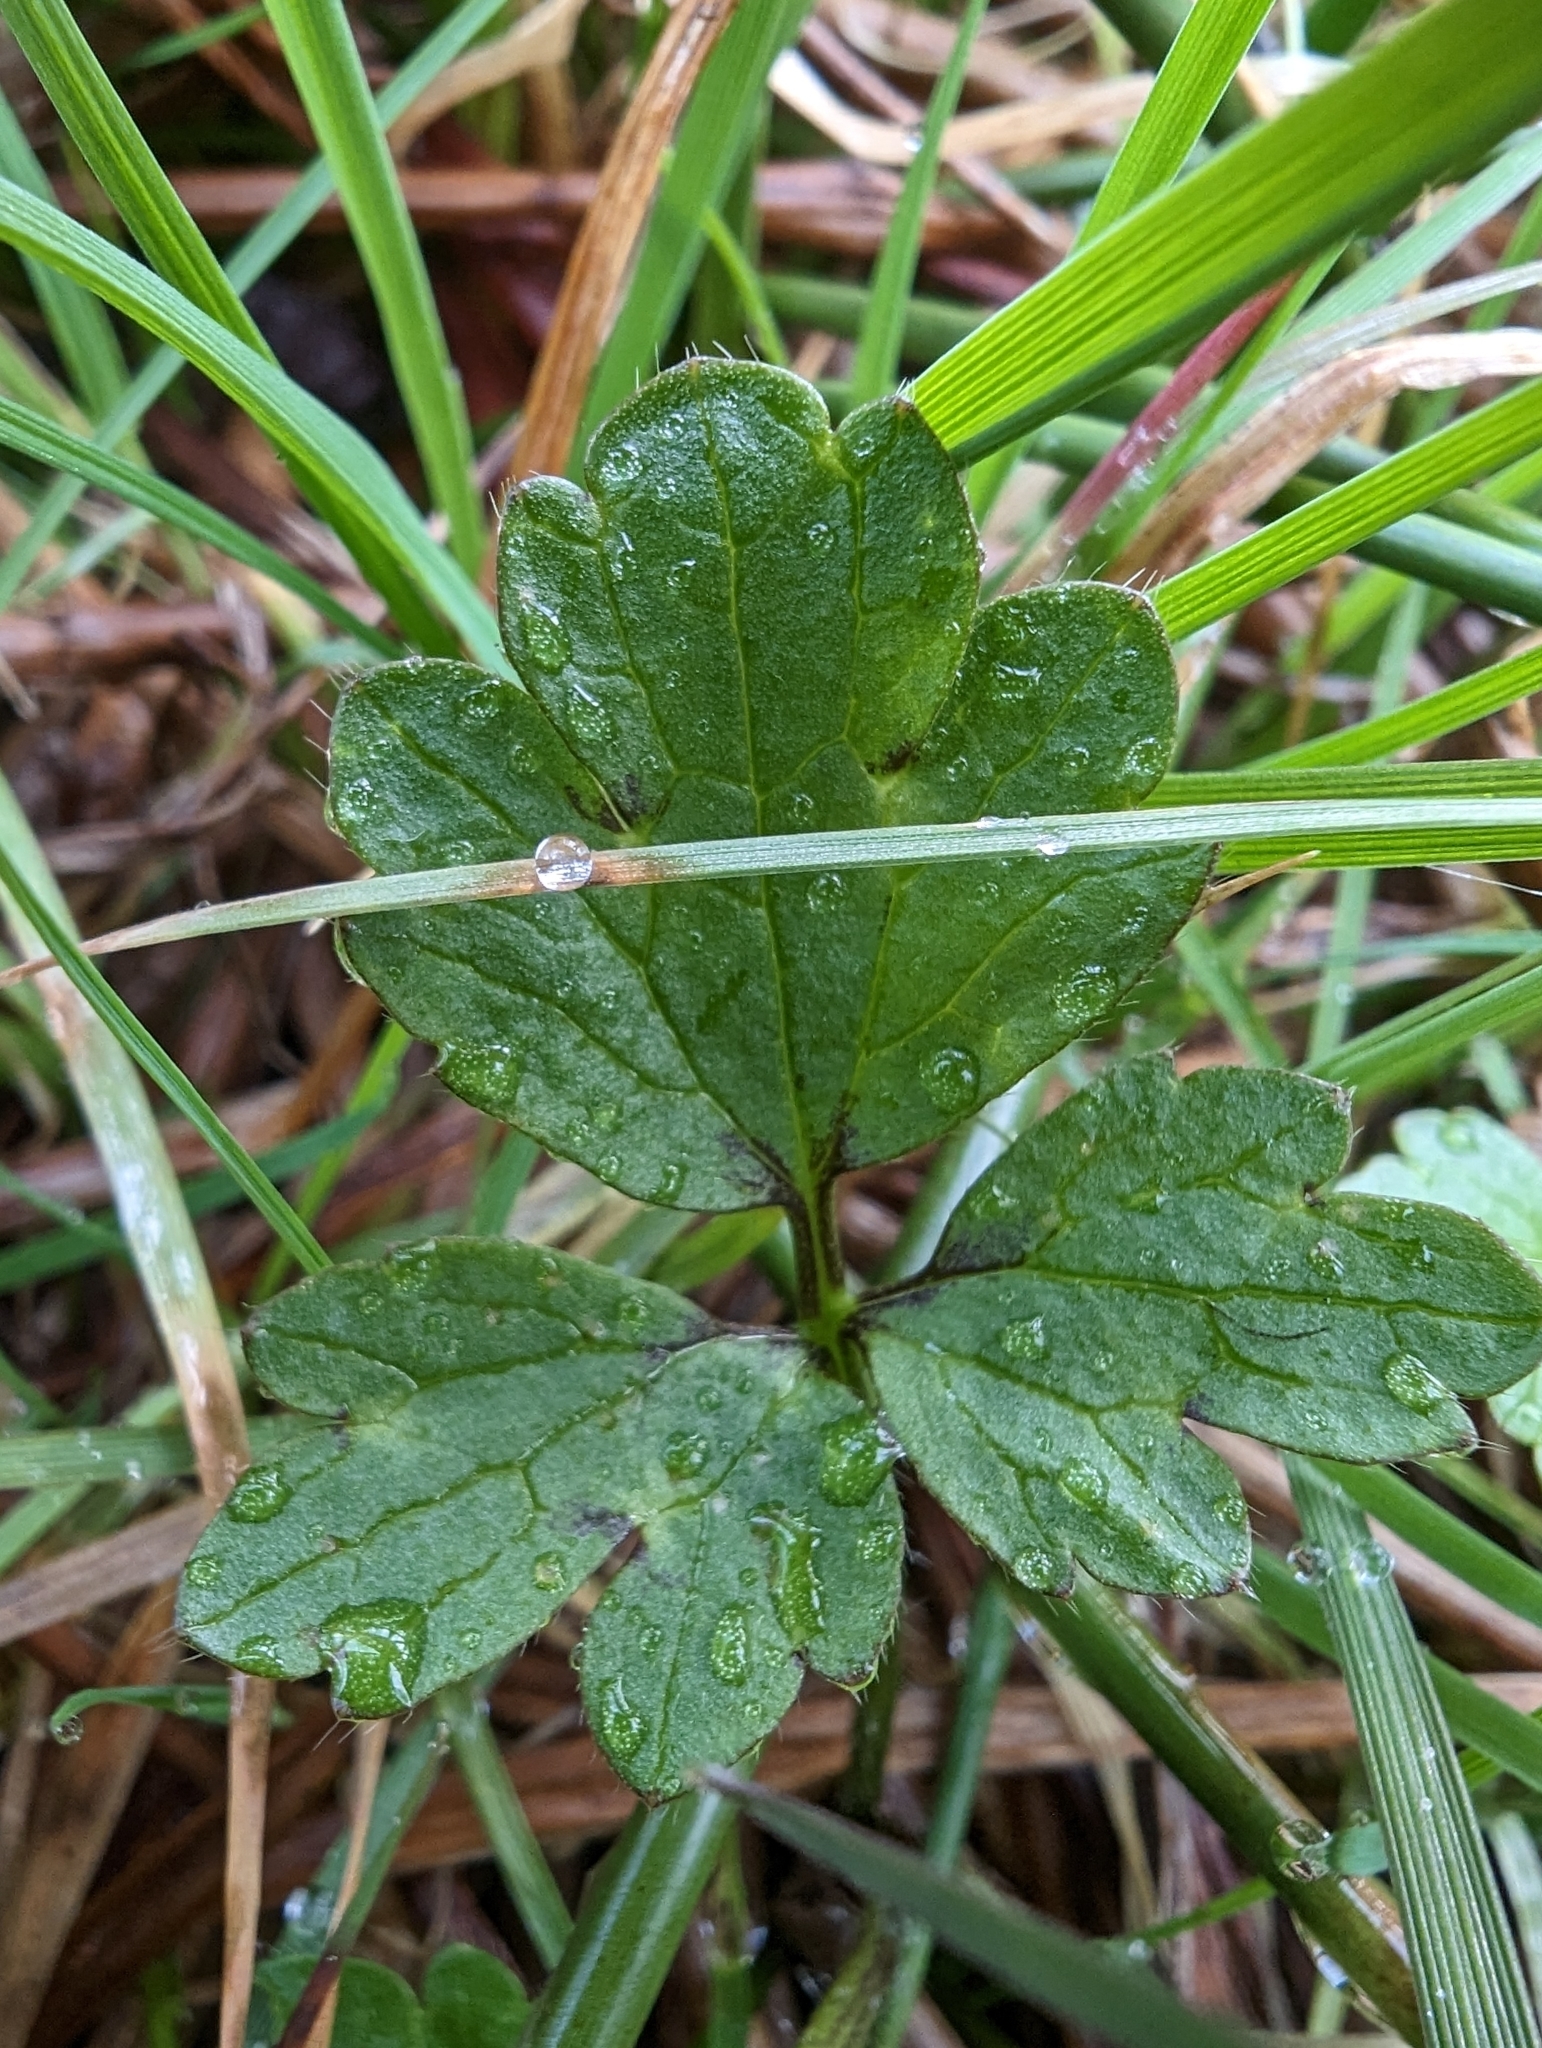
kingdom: Plantae
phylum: Tracheophyta
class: Magnoliopsida
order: Ranunculales
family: Ranunculaceae
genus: Ranunculus
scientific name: Ranunculus repens
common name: Creeping buttercup
